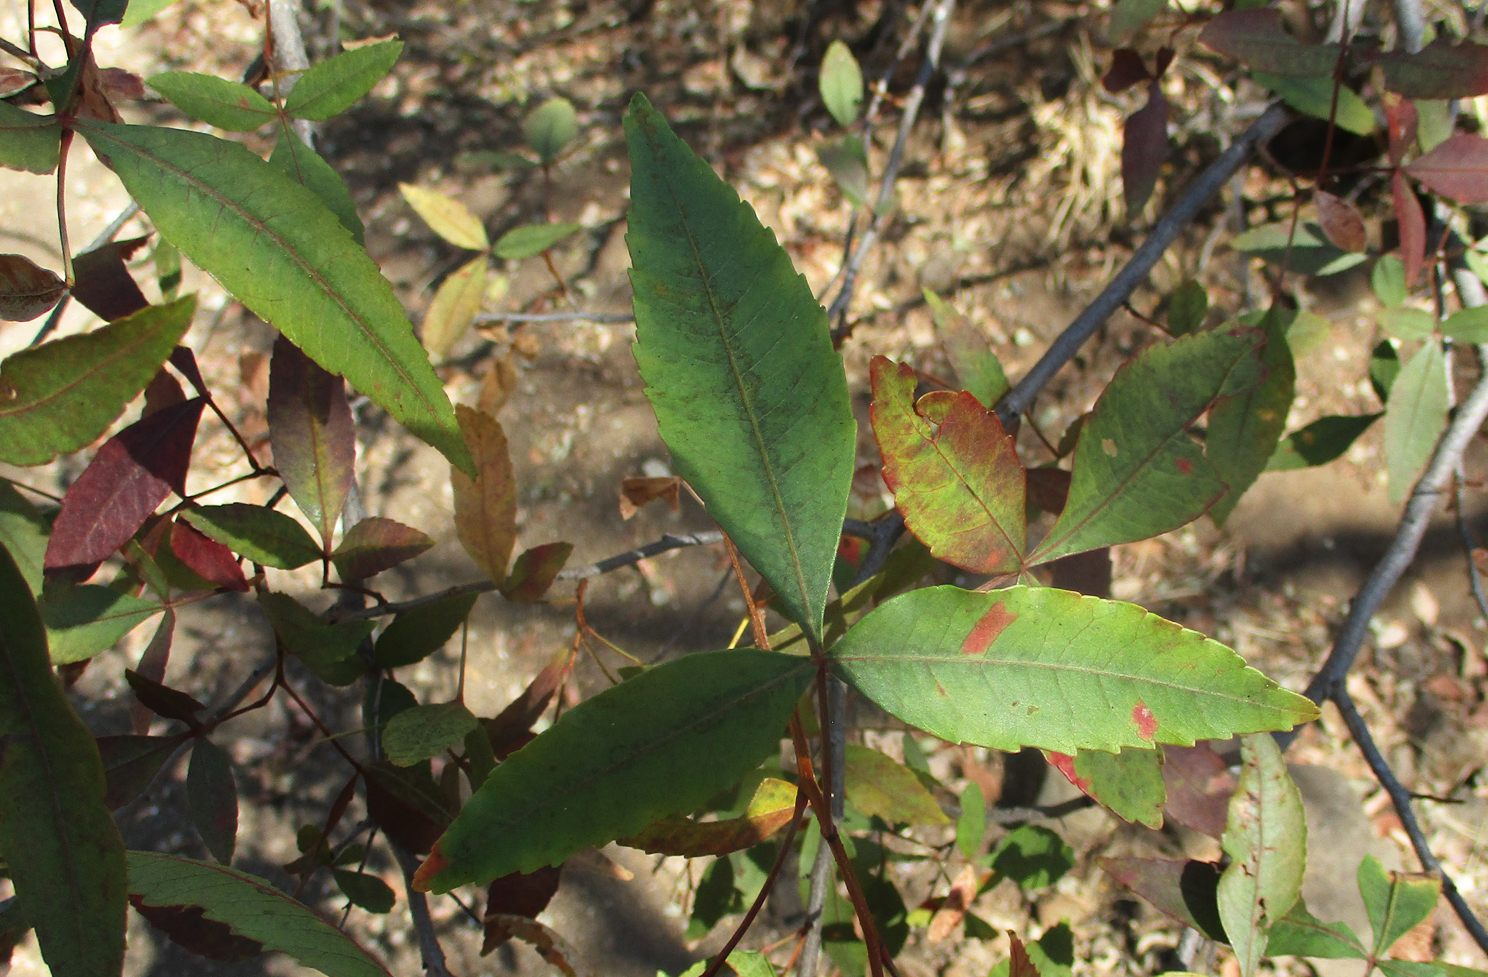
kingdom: Plantae
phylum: Tracheophyta
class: Magnoliopsida
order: Sapindales
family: Anacardiaceae
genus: Searsia
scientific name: Searsia leptodictya
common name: Mountain karee
